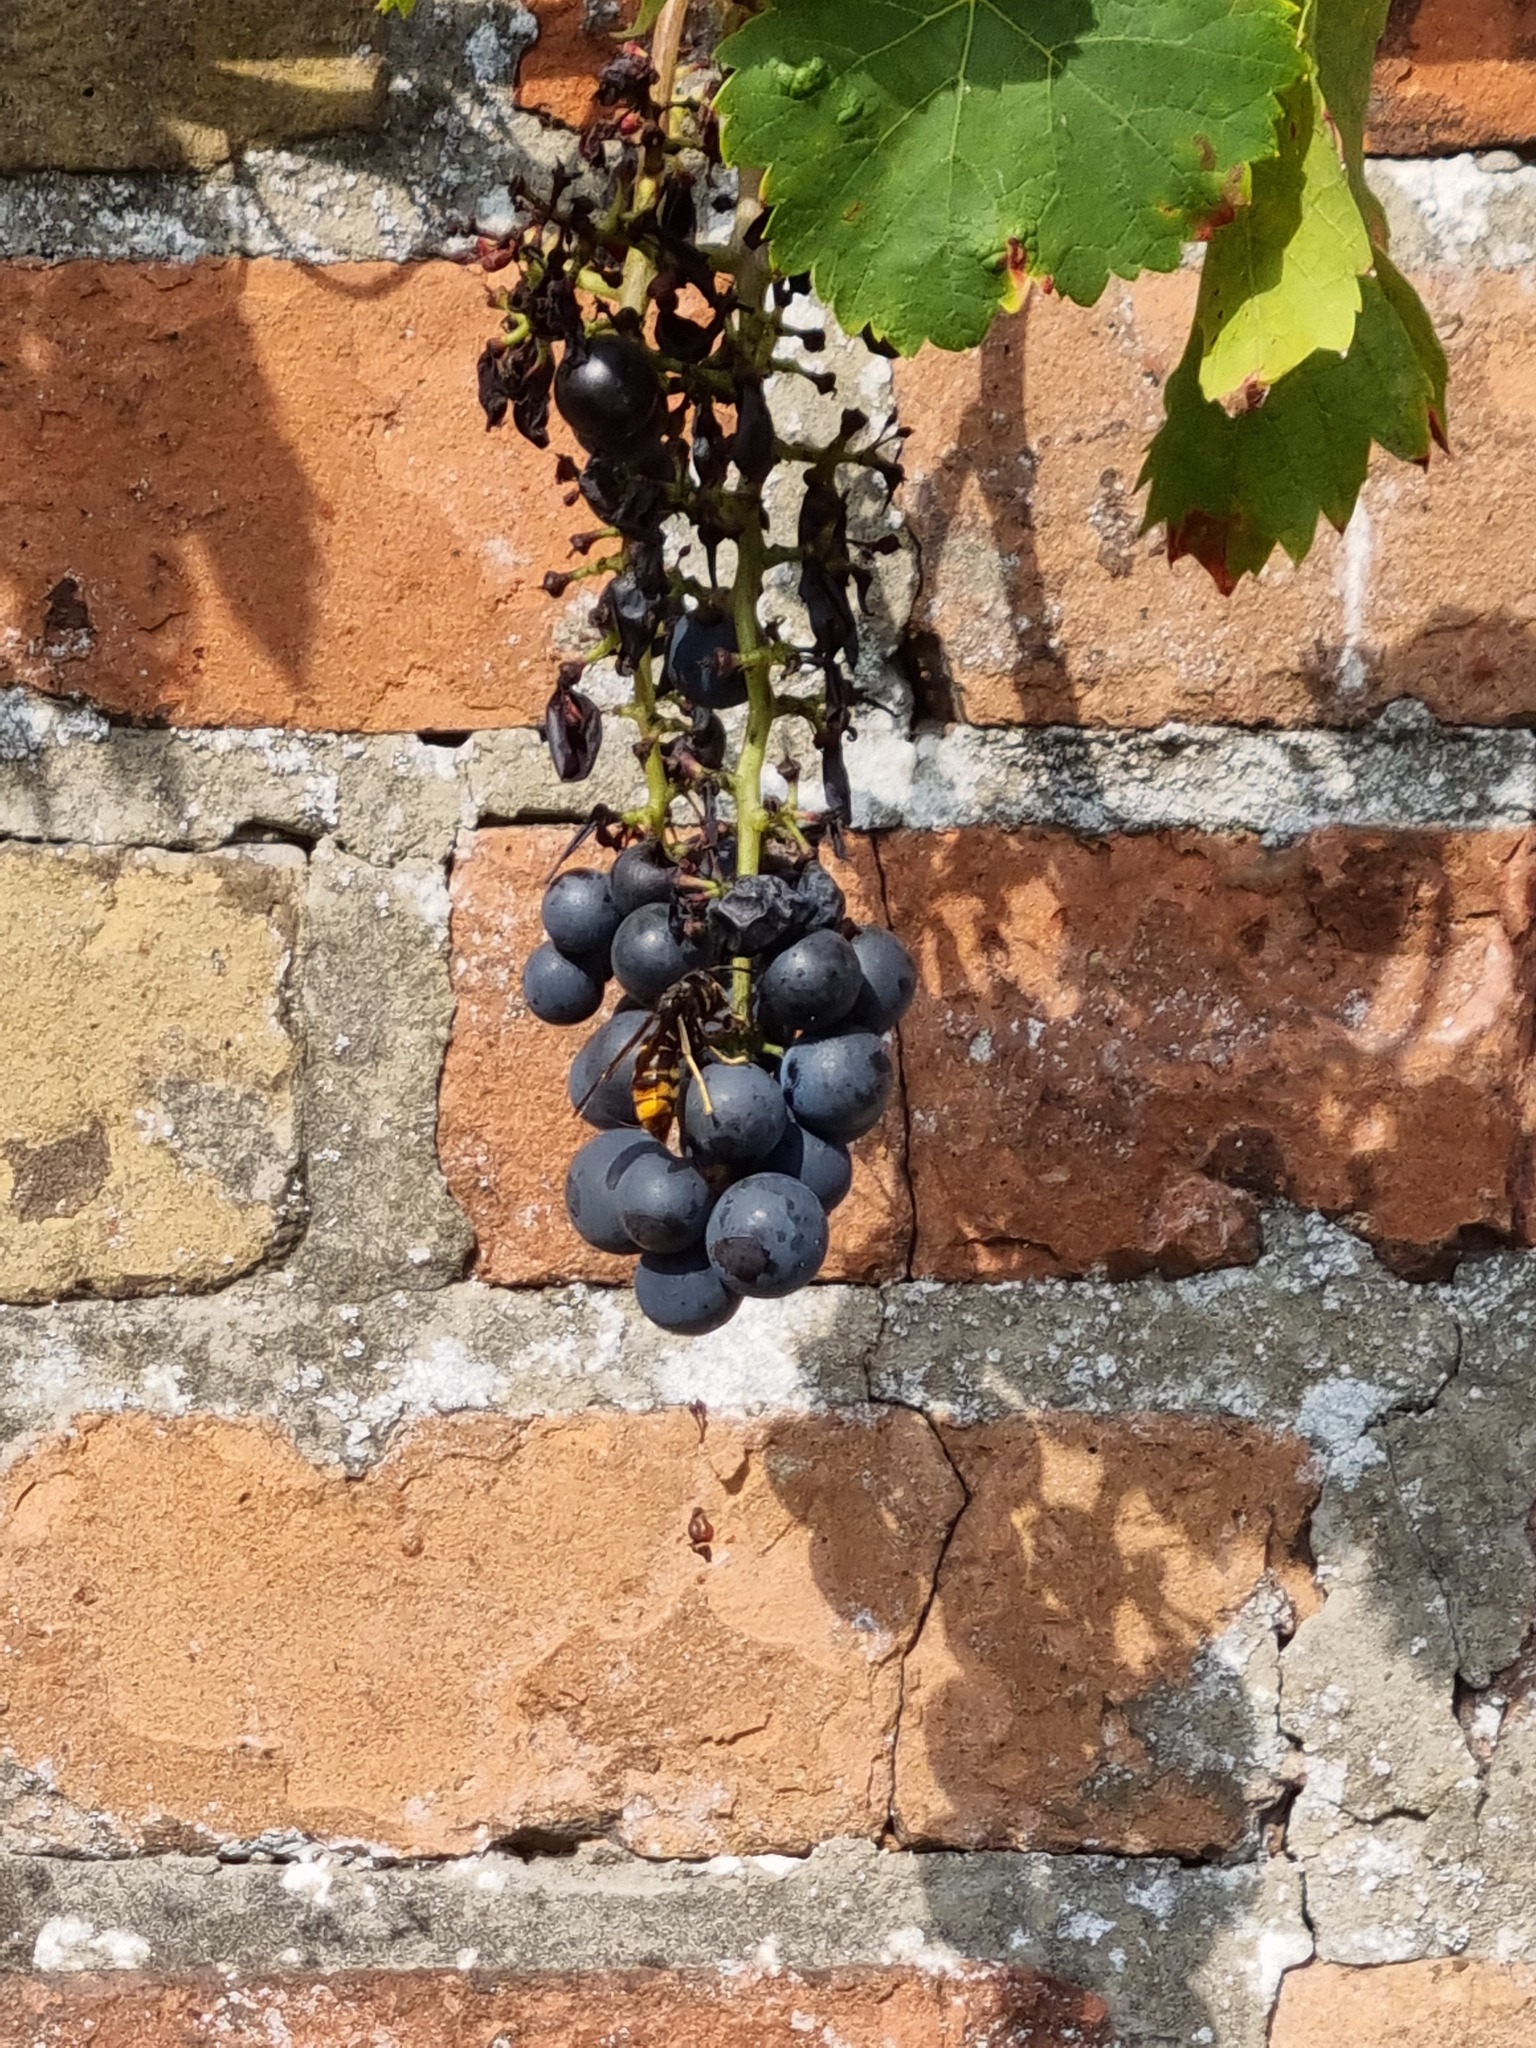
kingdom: Animalia
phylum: Arthropoda
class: Insecta
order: Hymenoptera
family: Vespidae
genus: Vespa
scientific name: Vespa velutina
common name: Asian hornet
